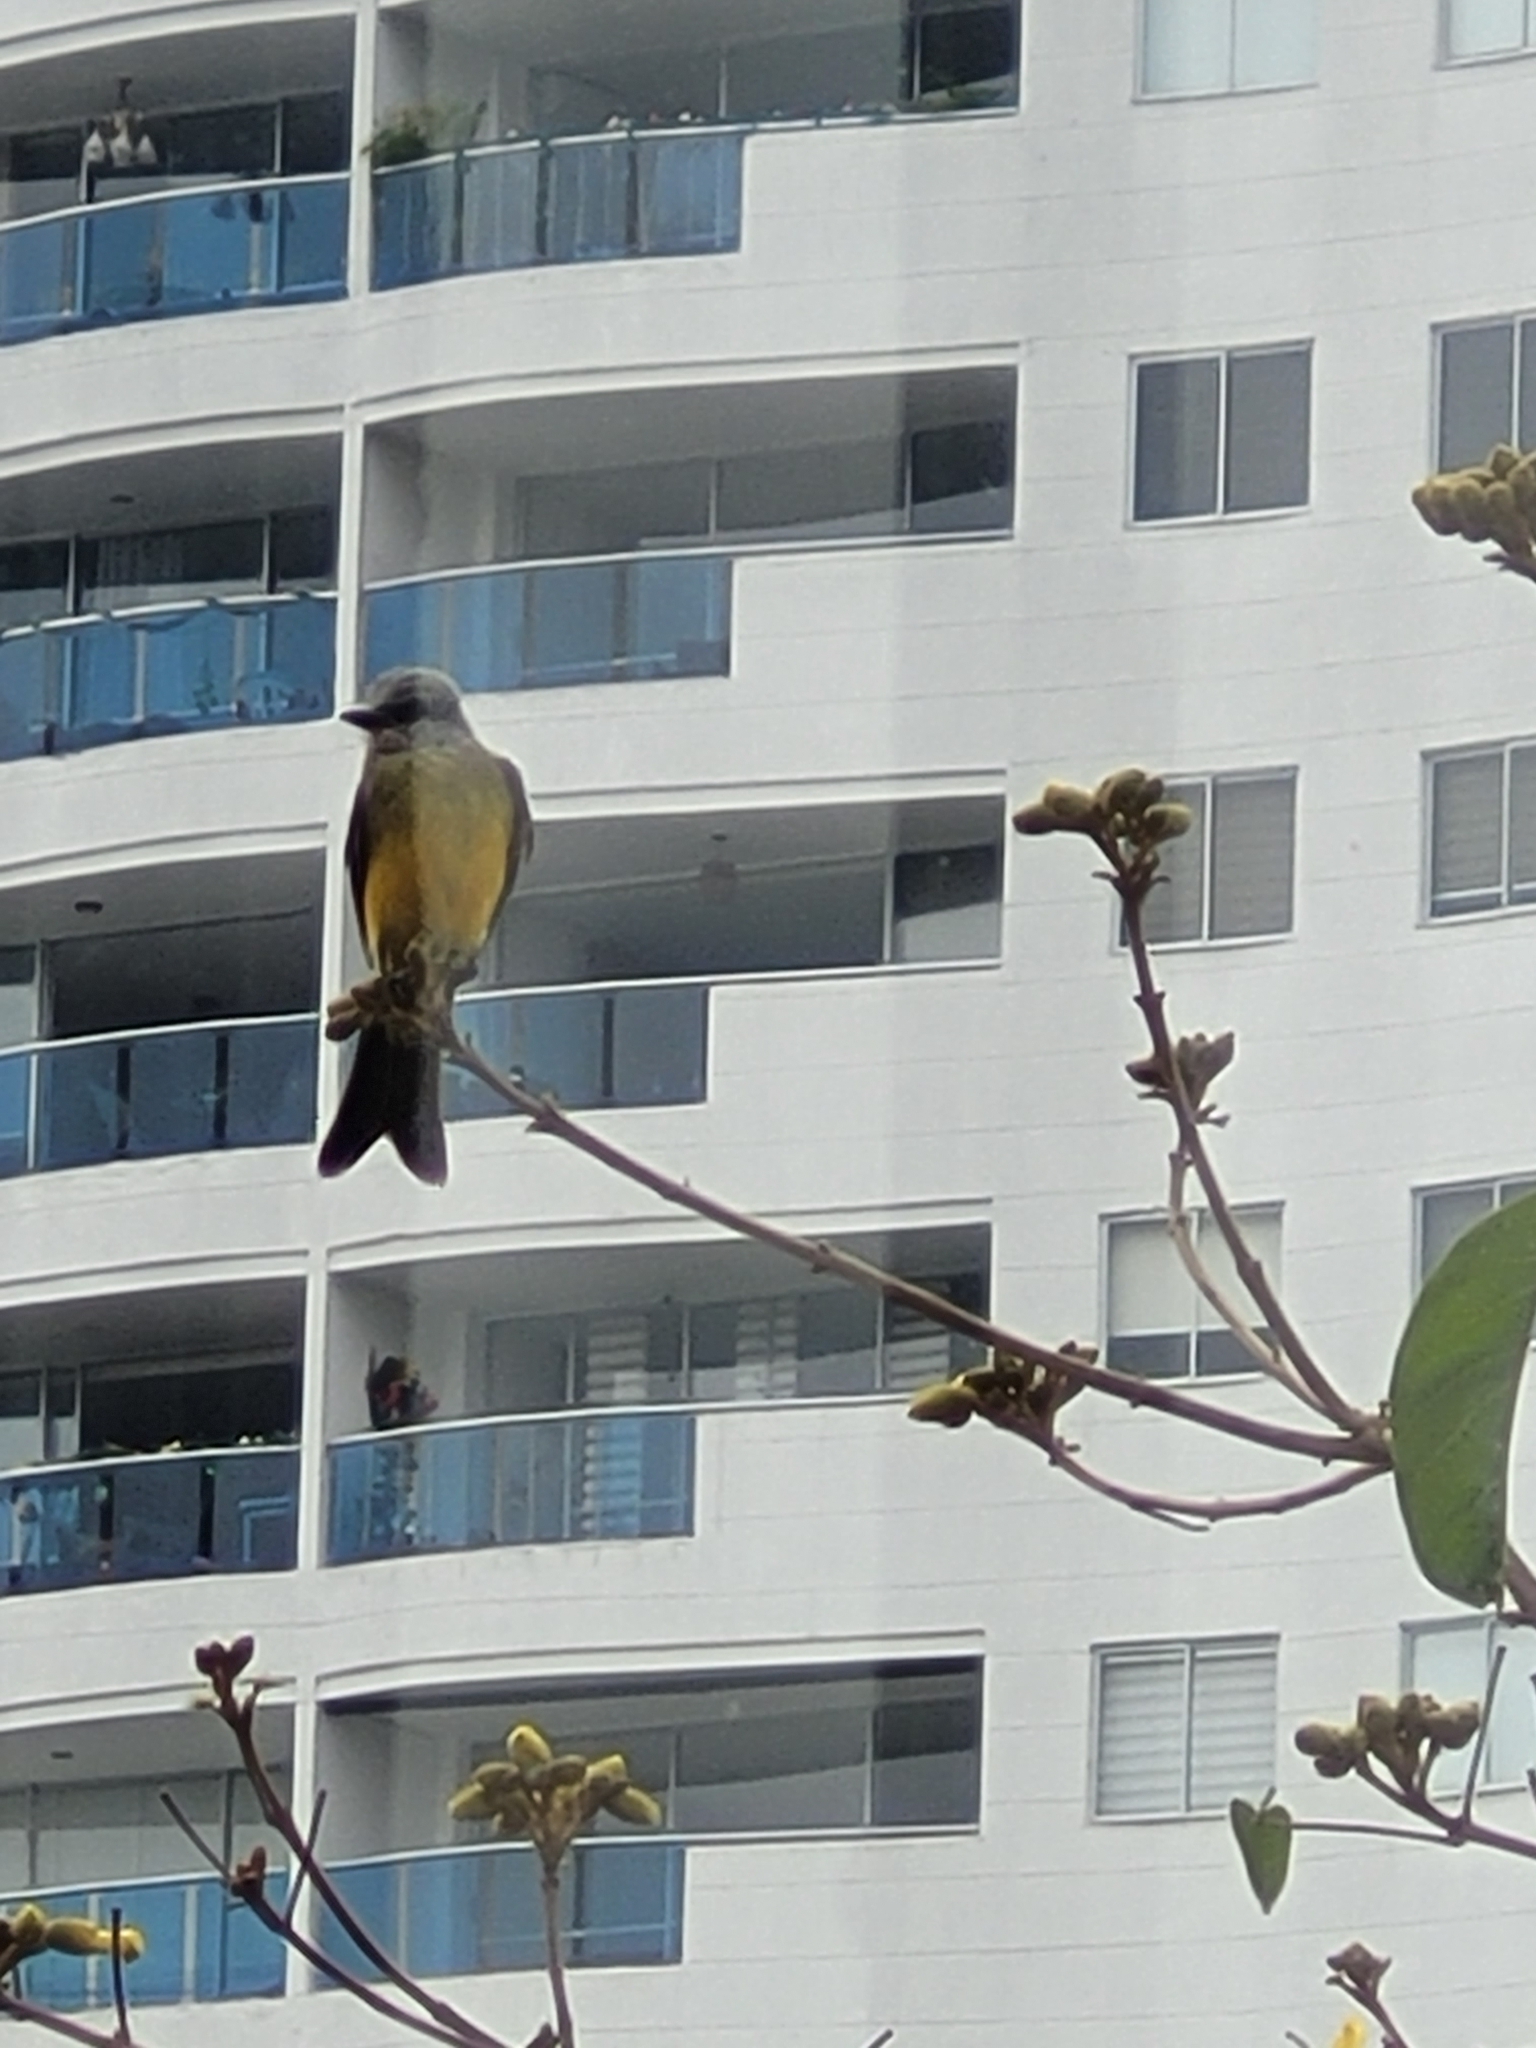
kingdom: Animalia
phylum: Chordata
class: Aves
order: Passeriformes
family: Tyrannidae
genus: Tyrannus
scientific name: Tyrannus melancholicus
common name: Tropical kingbird
